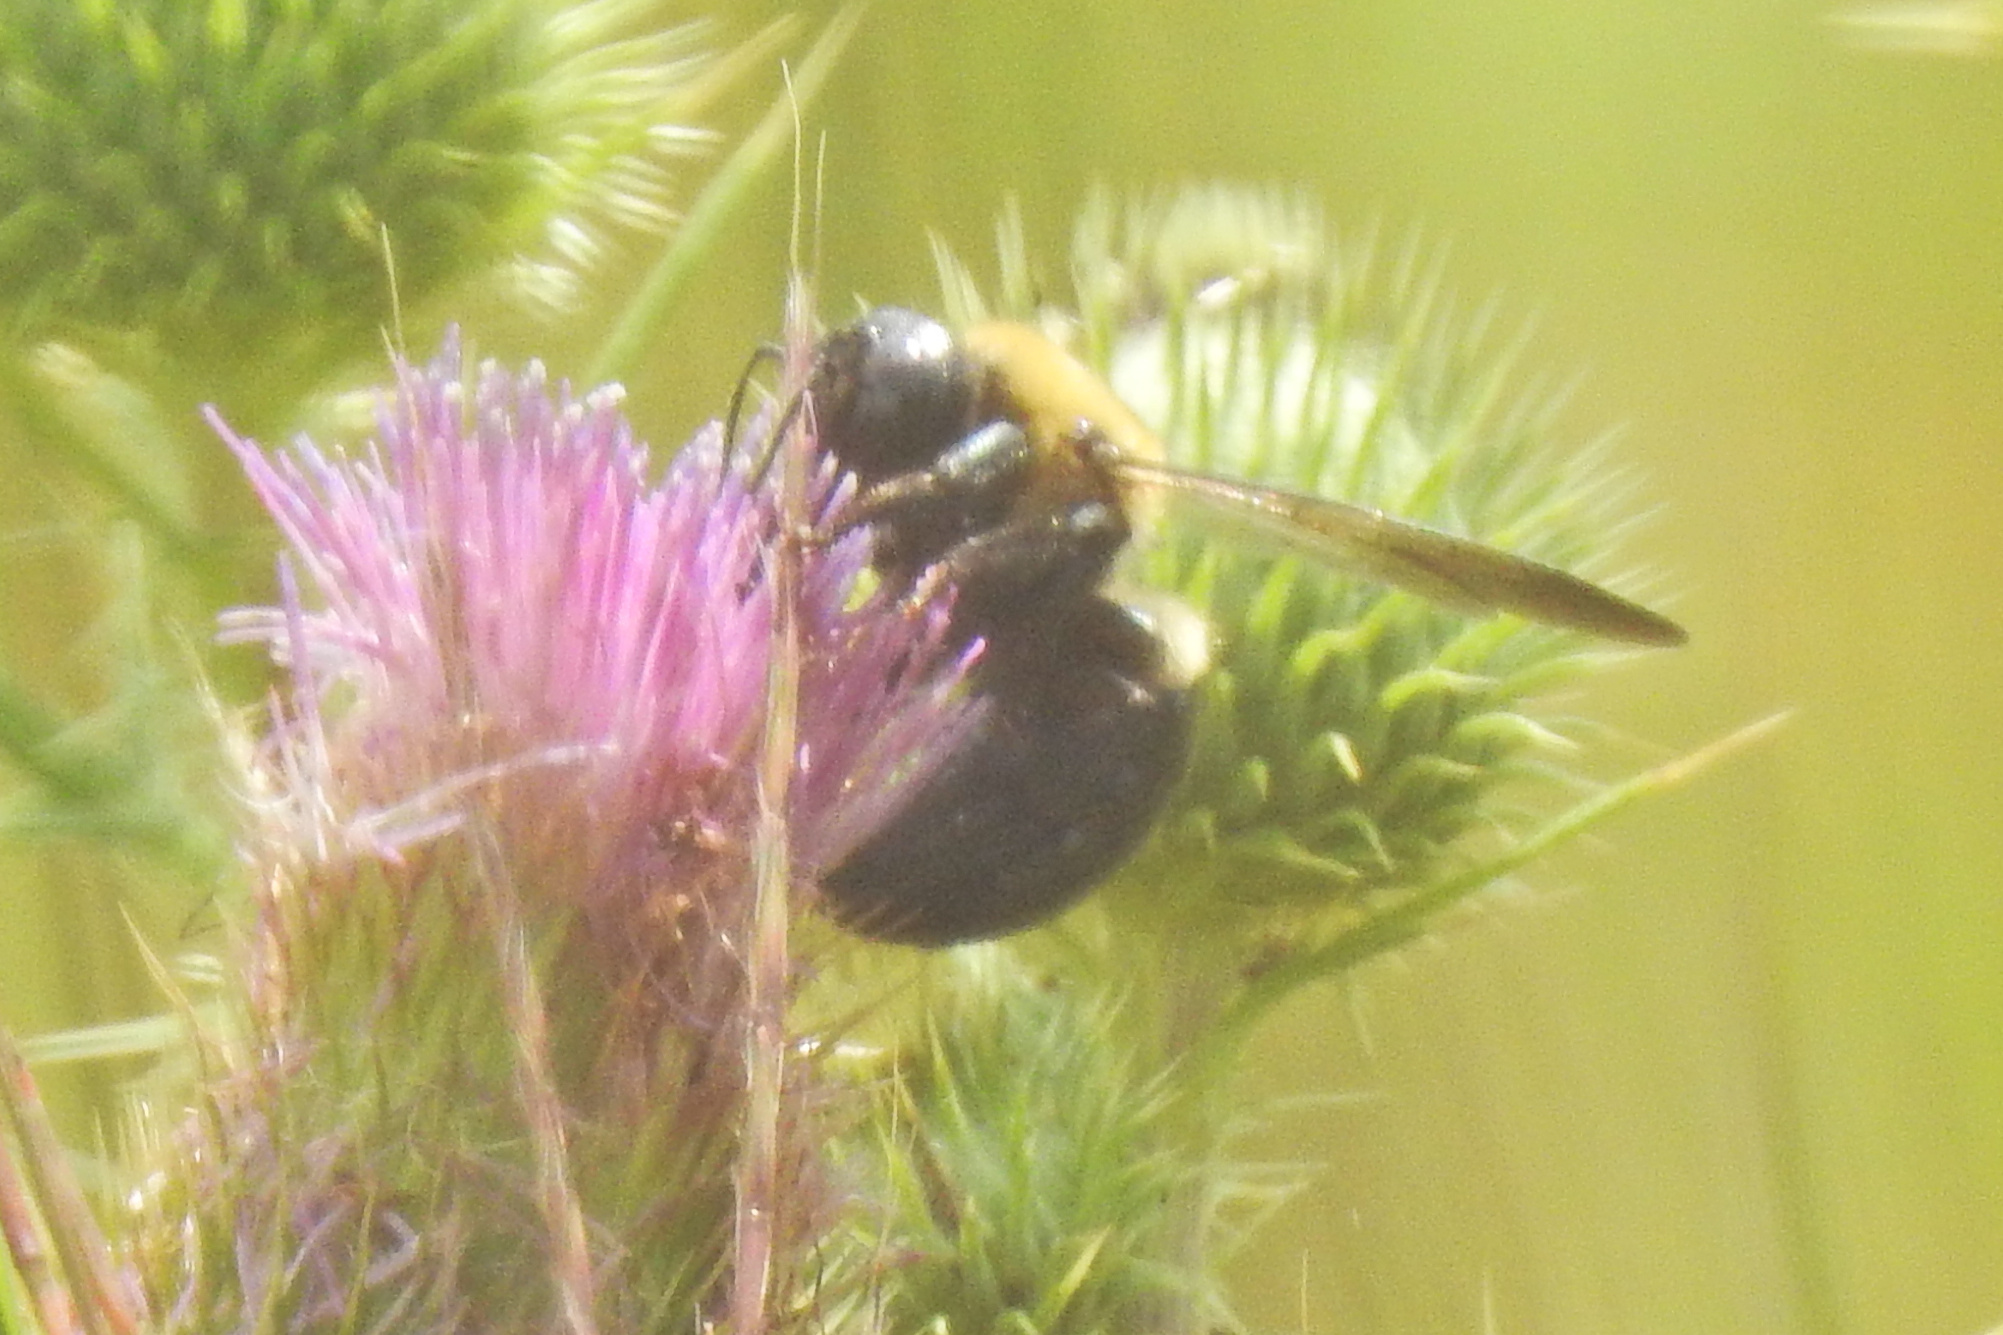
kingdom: Animalia
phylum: Arthropoda
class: Insecta
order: Hymenoptera
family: Apidae
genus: Xylocopa
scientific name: Xylocopa virginica
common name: Carpenter bee
